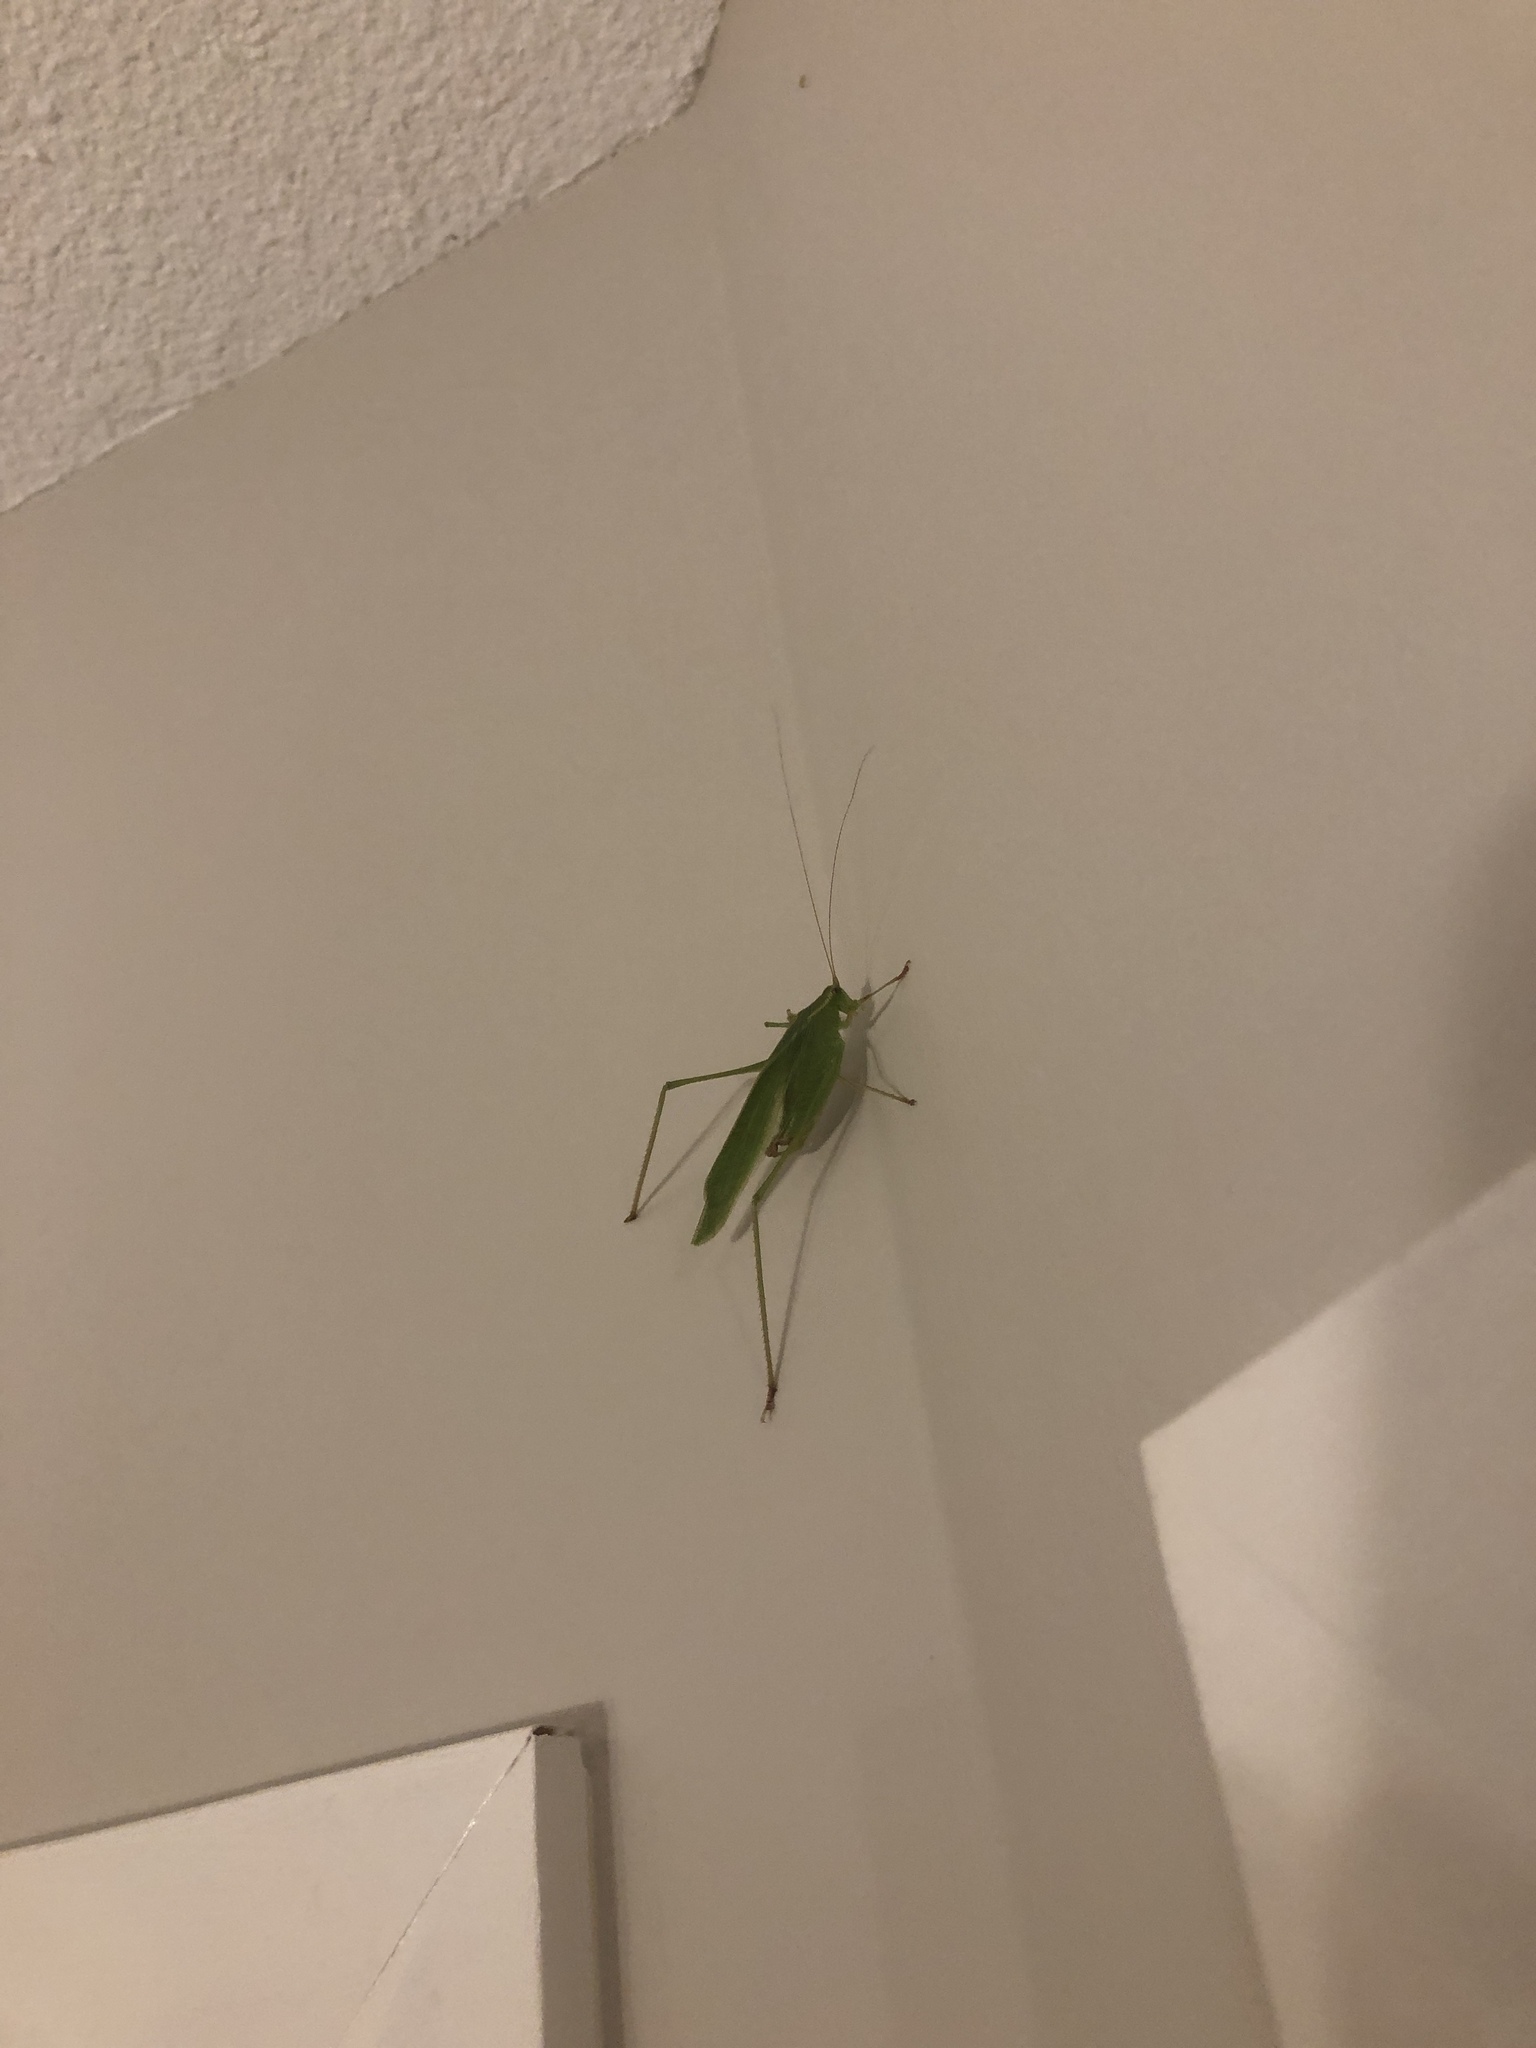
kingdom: Animalia
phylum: Arthropoda
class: Insecta
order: Orthoptera
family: Tettigoniidae
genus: Scudderia
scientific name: Scudderia furcata
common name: Fork-tailed bush katydid
